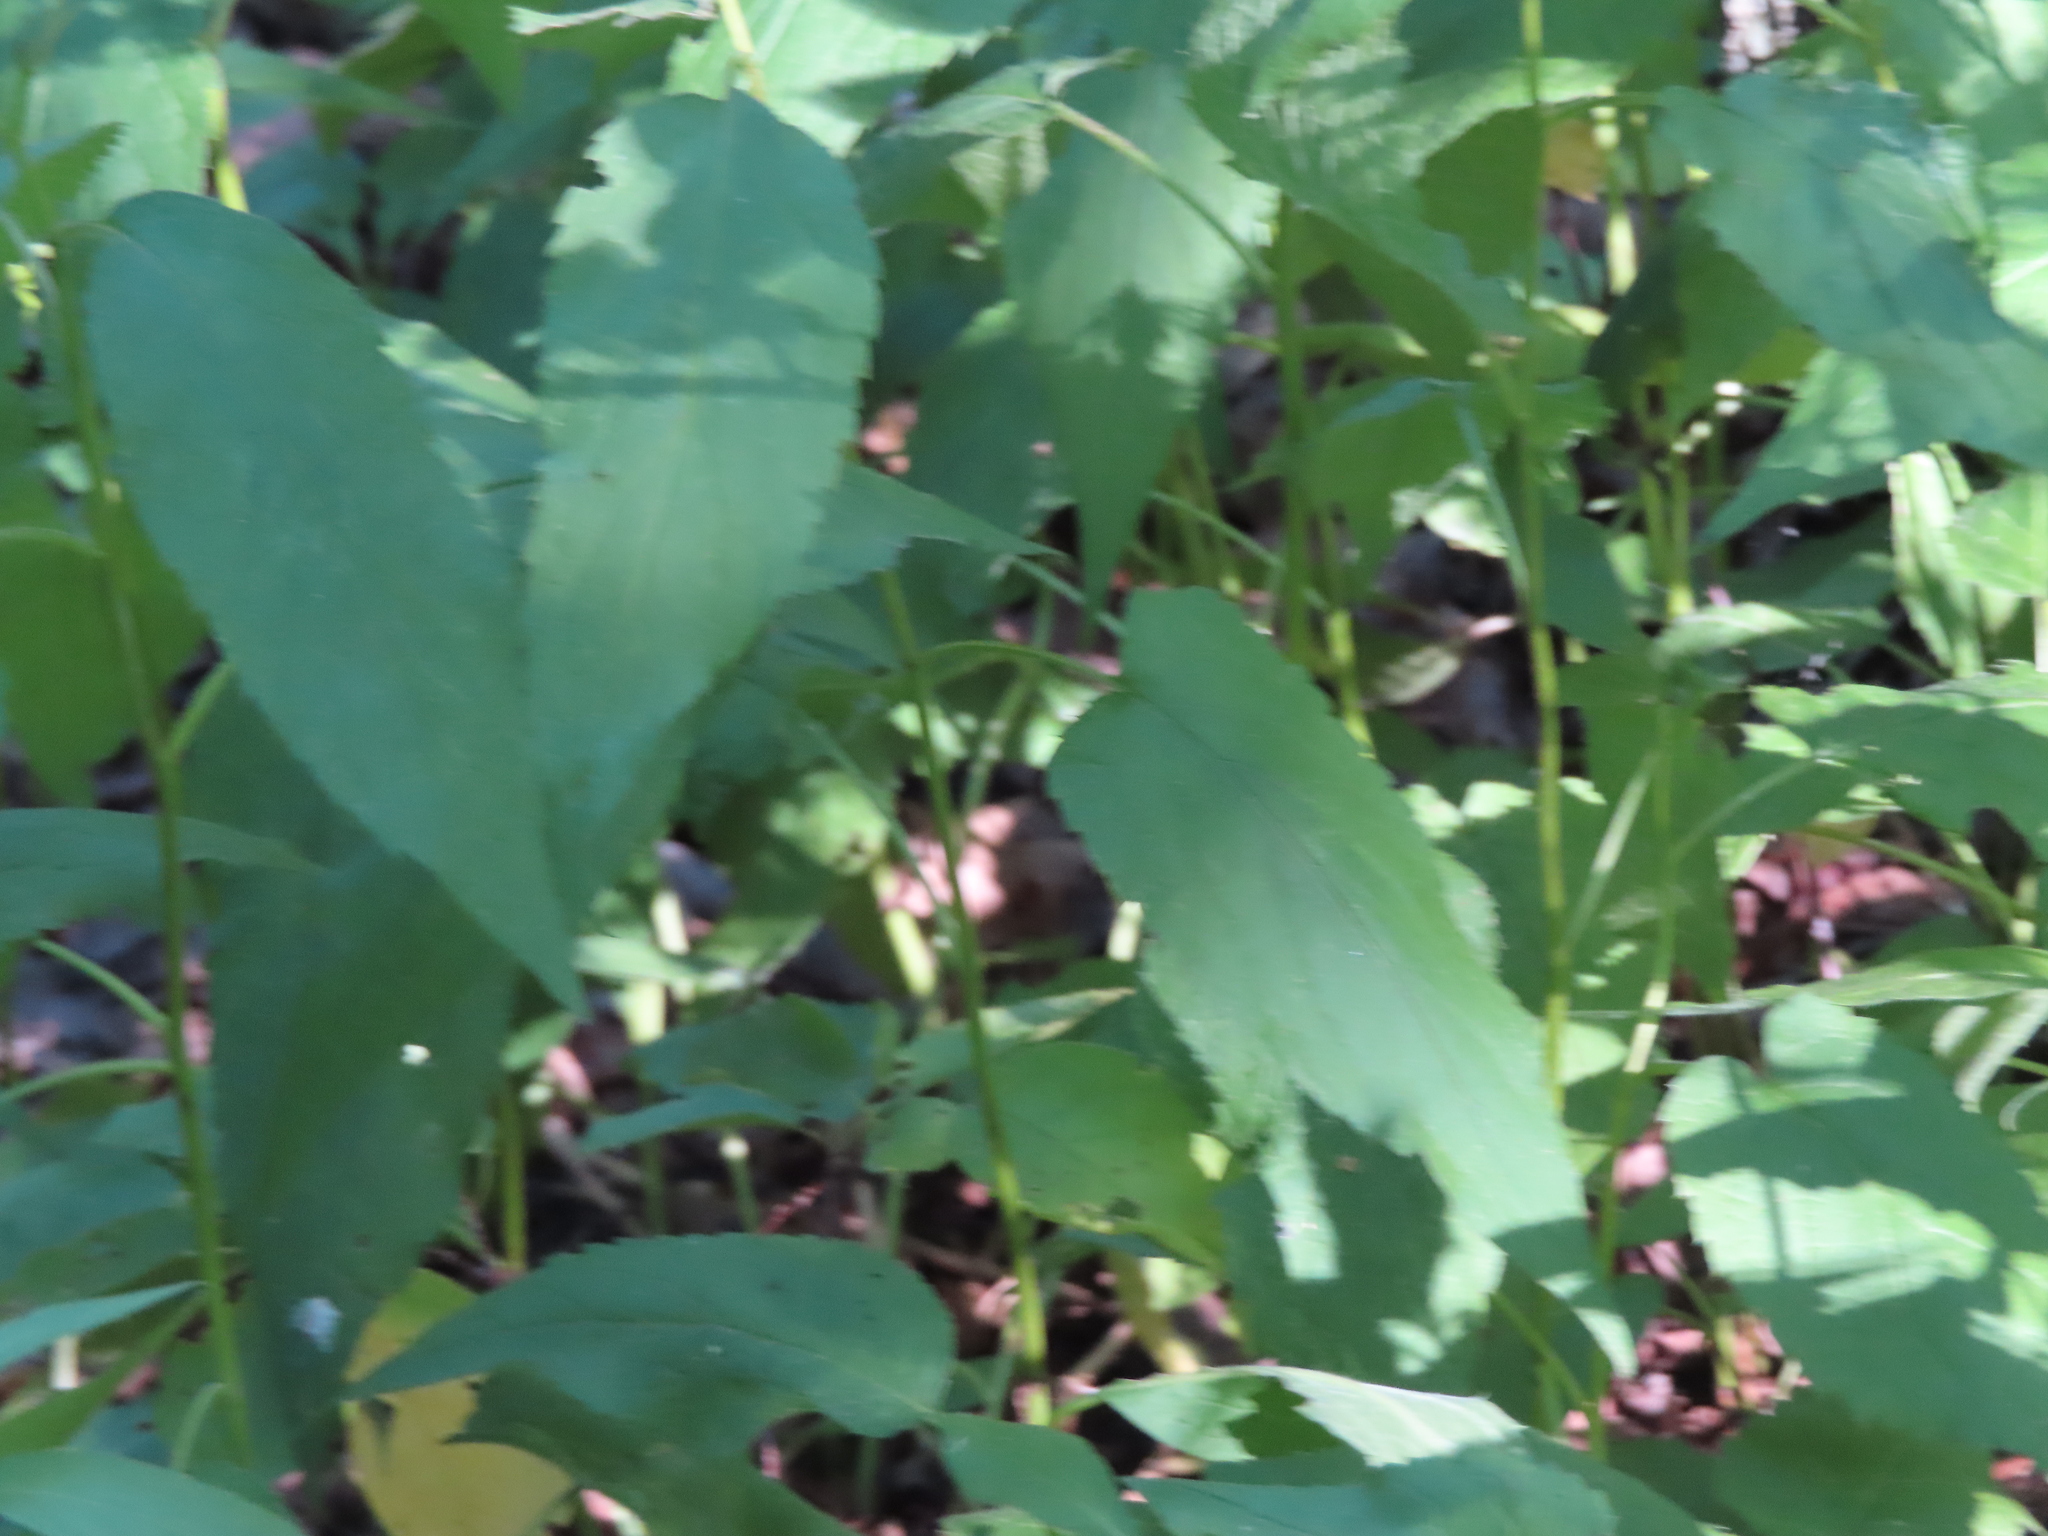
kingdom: Plantae
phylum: Tracheophyta
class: Magnoliopsida
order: Asterales
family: Asteraceae
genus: Eurybia
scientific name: Eurybia furcata
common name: Forked aster
